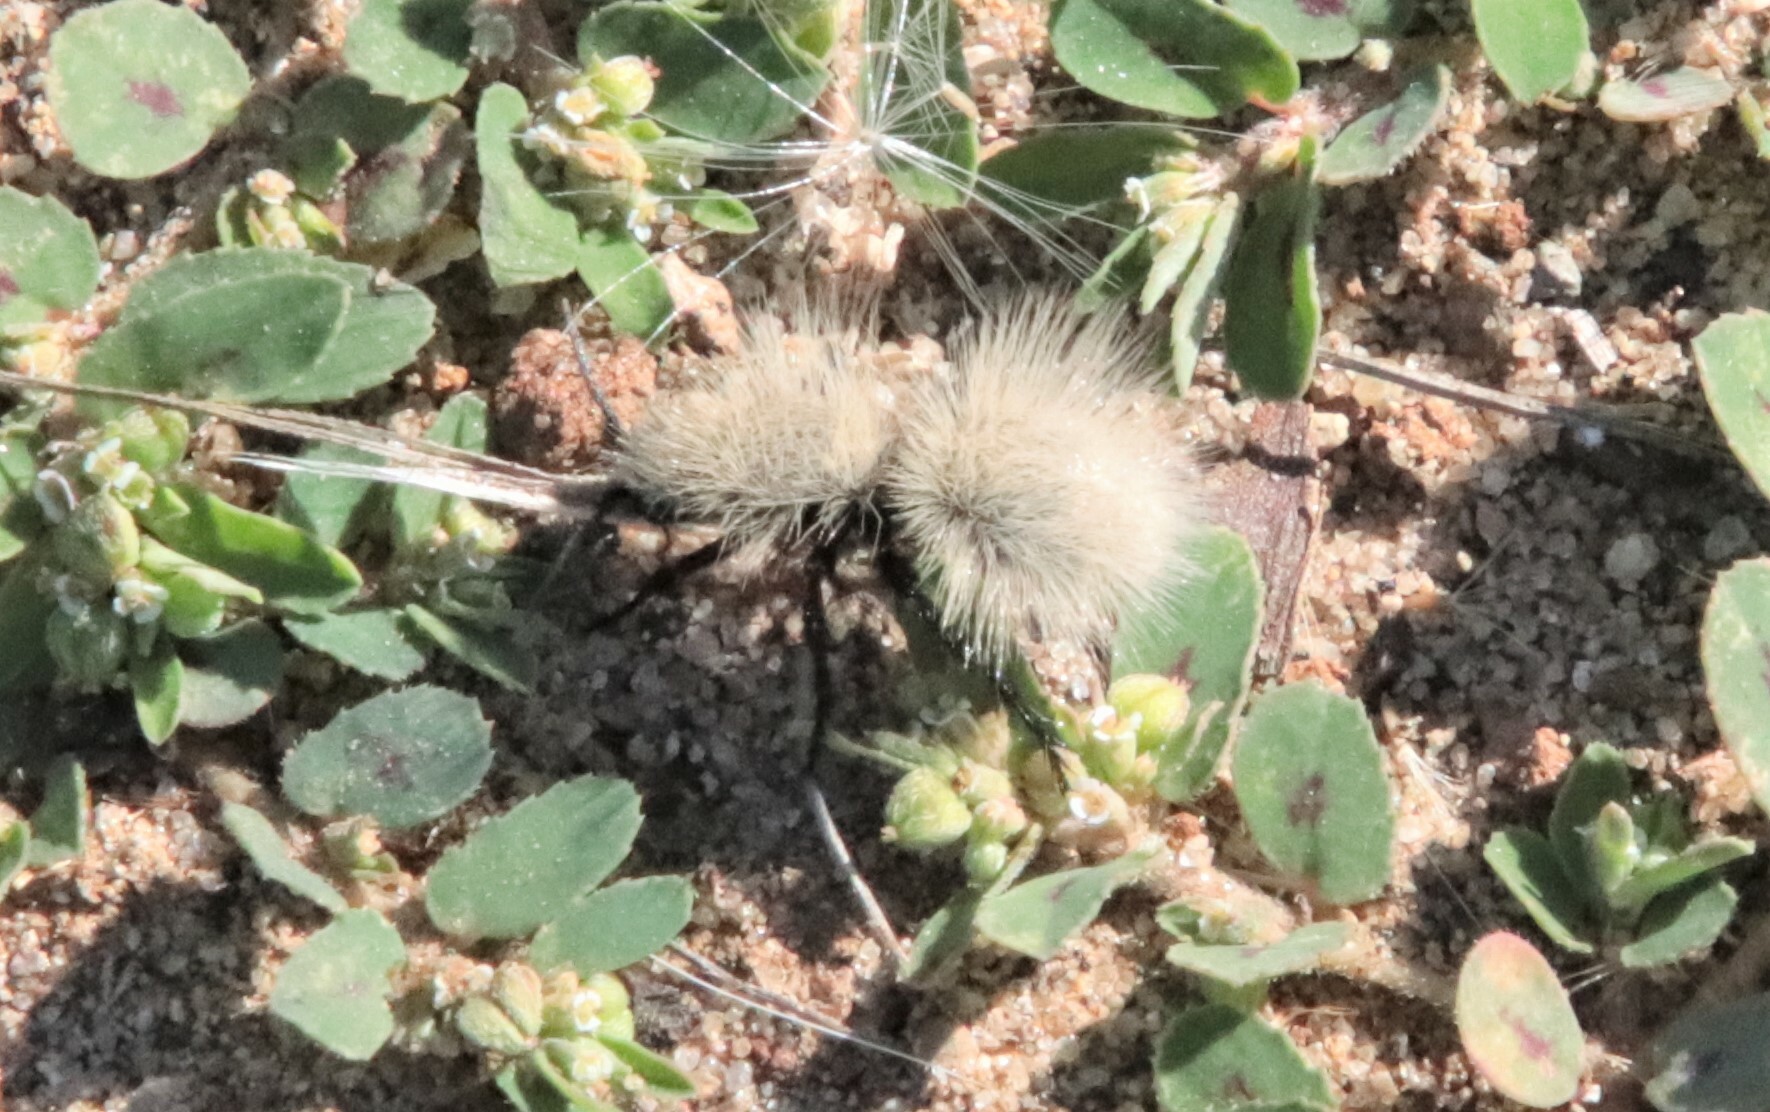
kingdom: Animalia
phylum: Arthropoda
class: Insecta
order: Hymenoptera
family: Mutillidae
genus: Dasymutilla
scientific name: Dasymutilla
